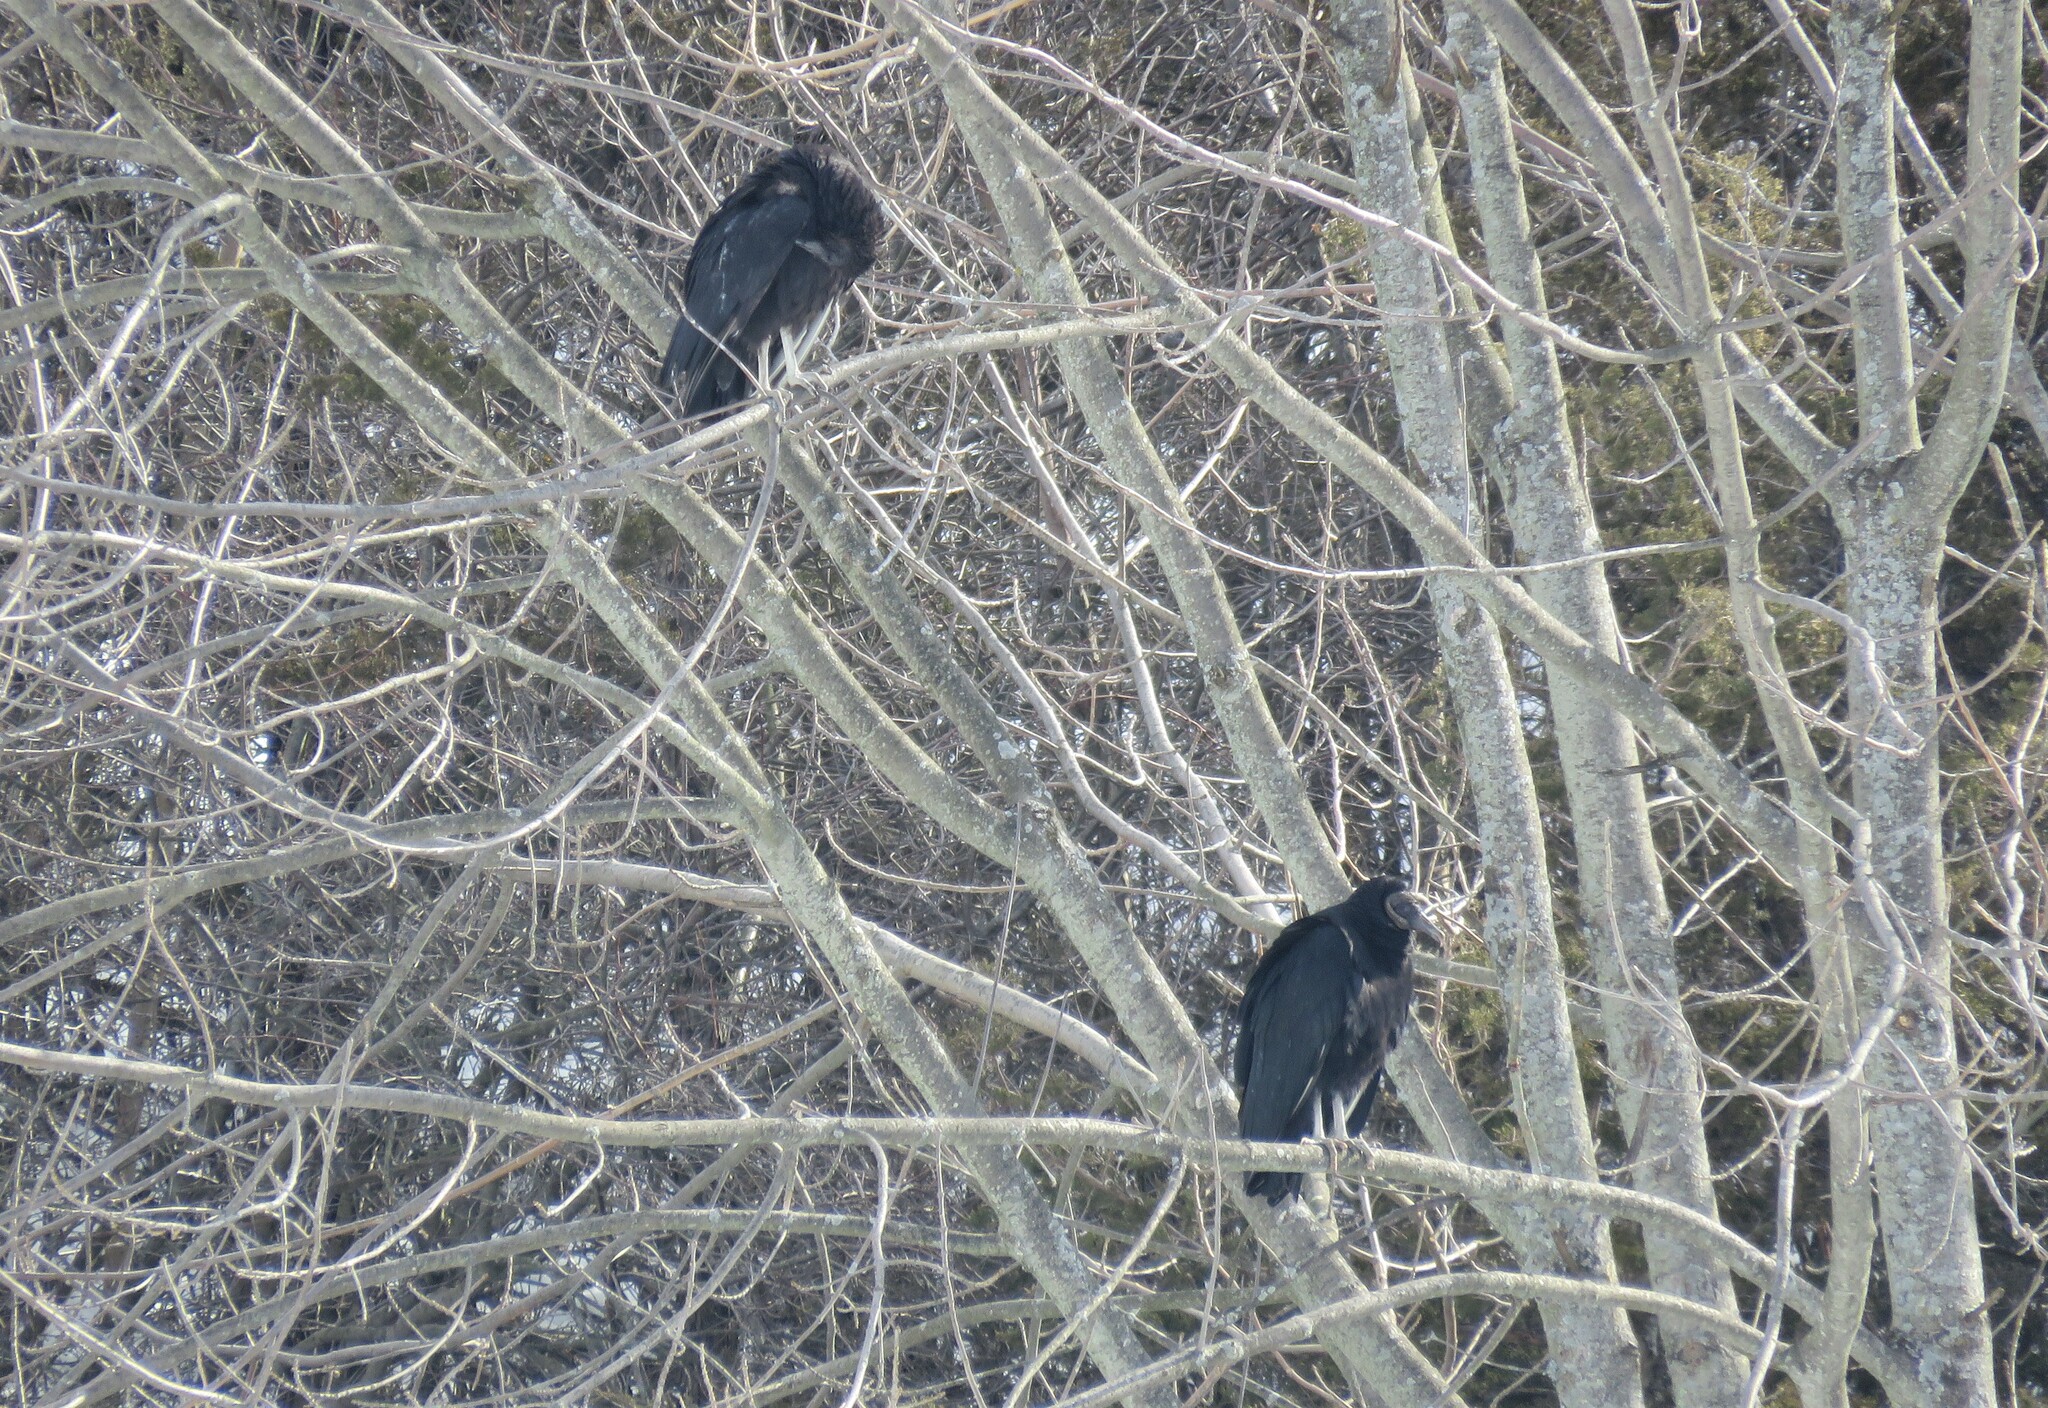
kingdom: Animalia
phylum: Chordata
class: Aves
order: Accipitriformes
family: Cathartidae
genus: Coragyps
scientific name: Coragyps atratus
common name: Black vulture
